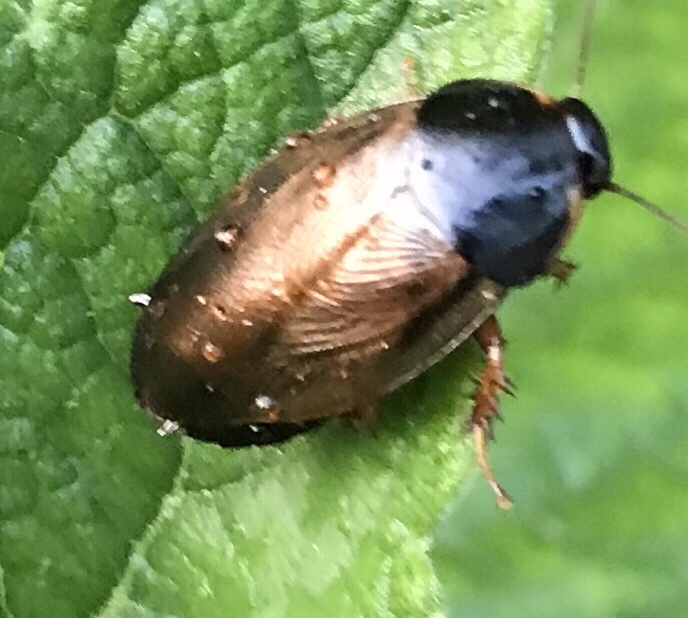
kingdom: Animalia
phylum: Arthropoda
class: Insecta
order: Blattodea
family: Blaberidae
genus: Pycnoscelus
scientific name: Pycnoscelus surinamensis
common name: Surinam cockroach
